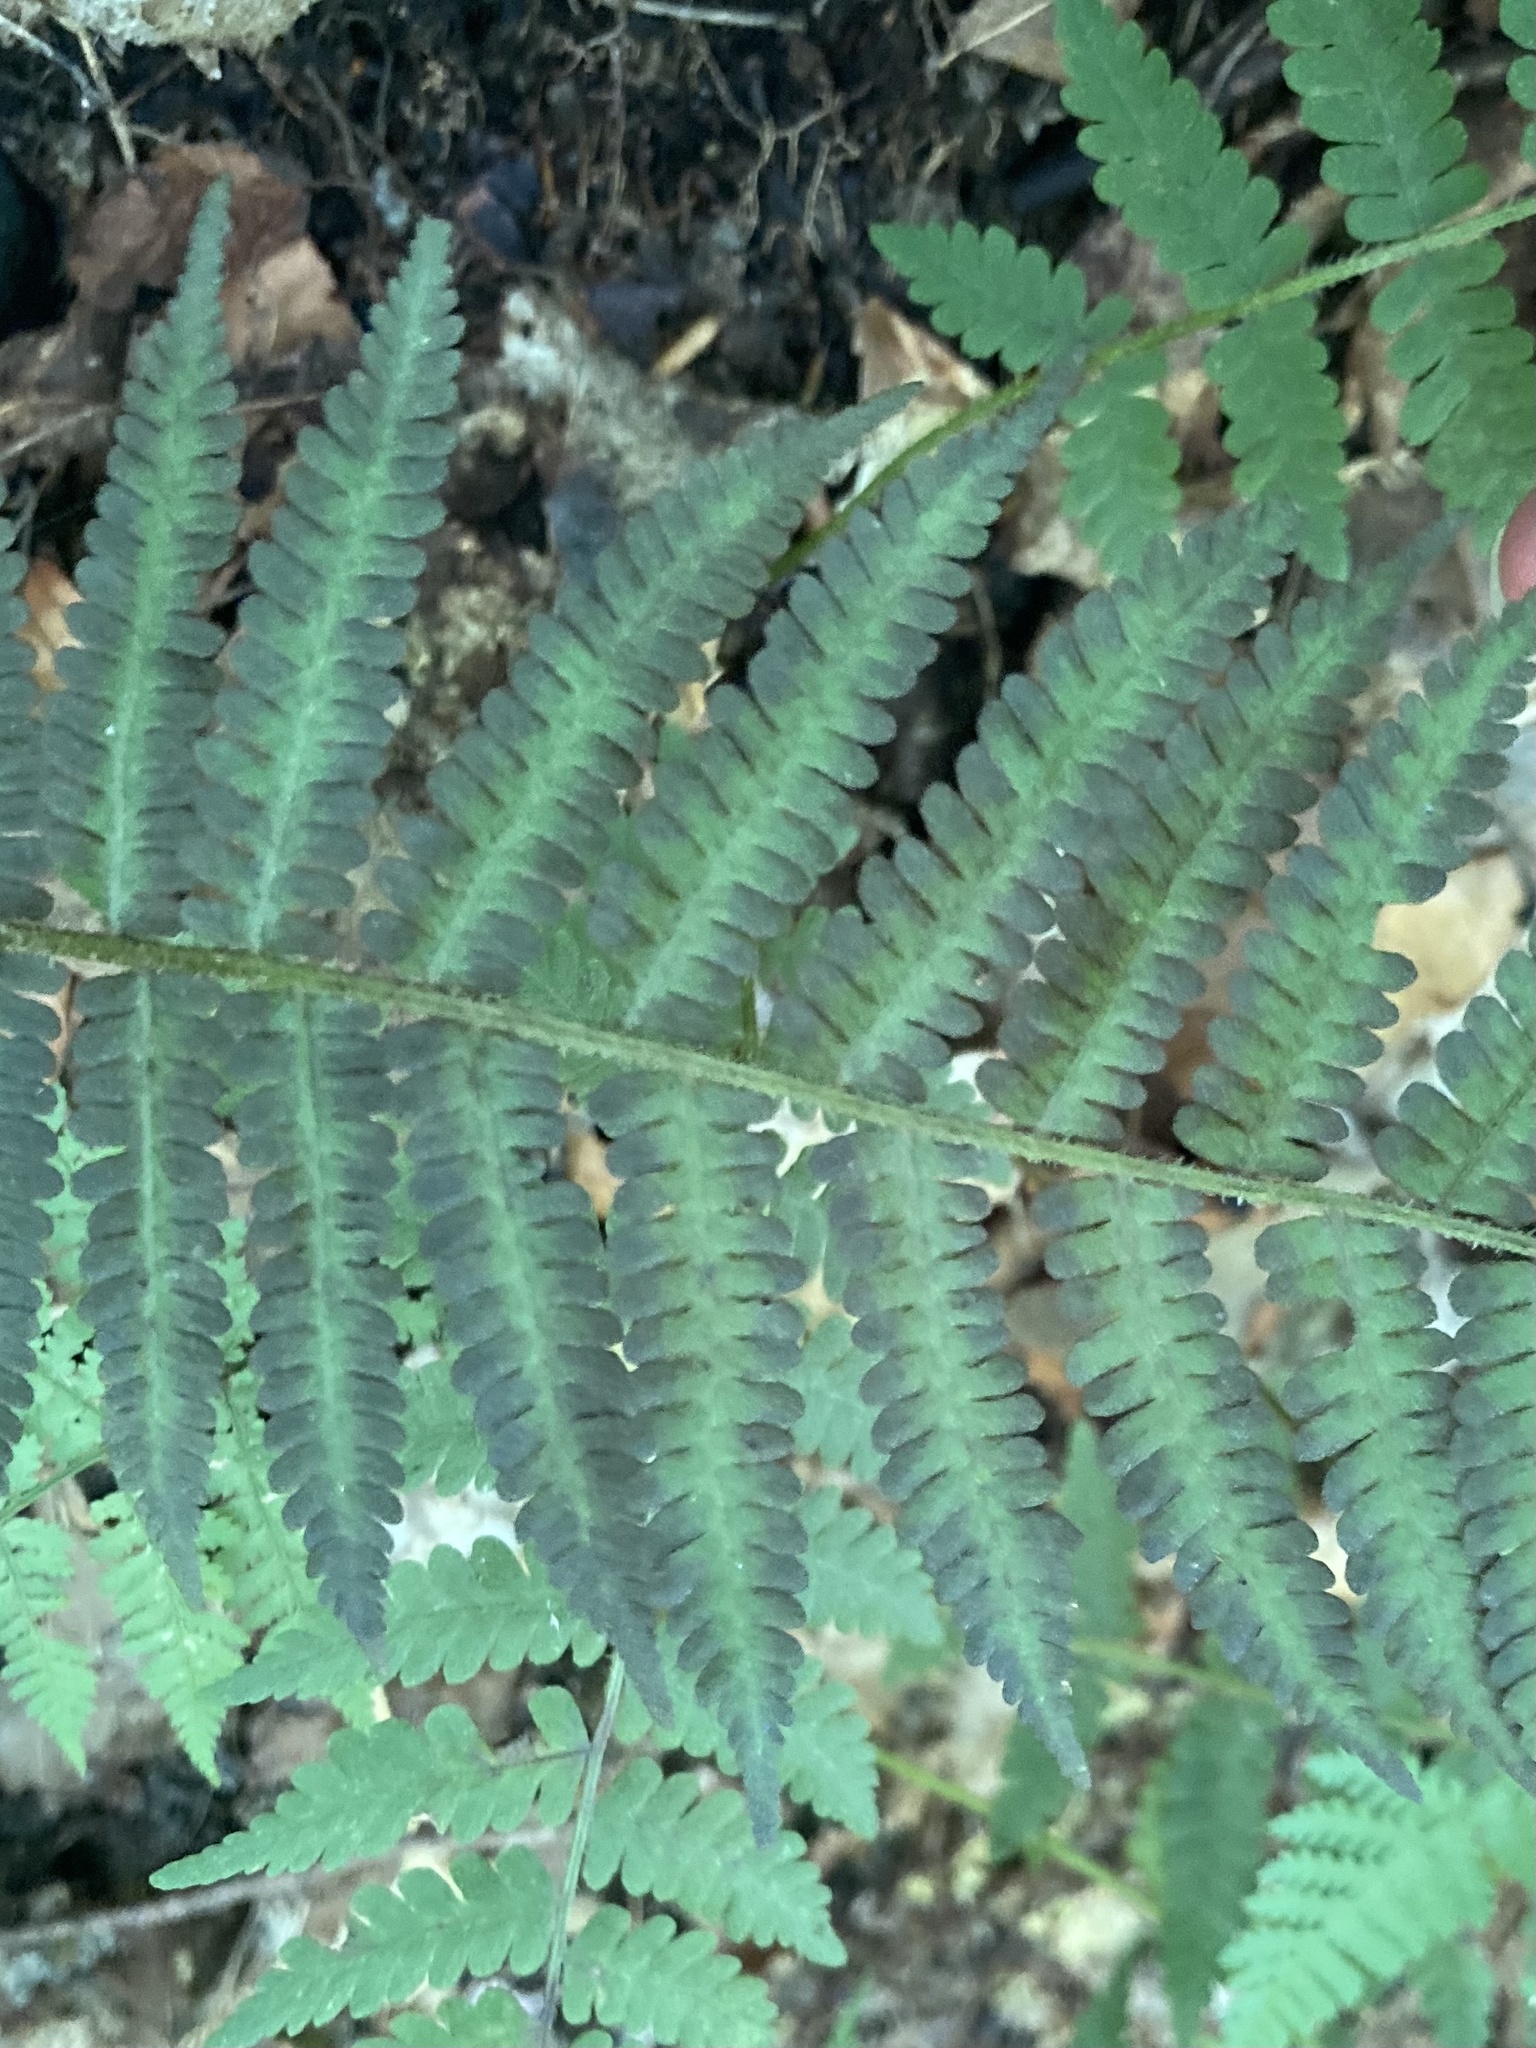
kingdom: Plantae
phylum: Tracheophyta
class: Polypodiopsida
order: Polypodiales
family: Athyriaceae
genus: Deparia
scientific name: Deparia acrostichoides
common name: Silver false spleenwort
